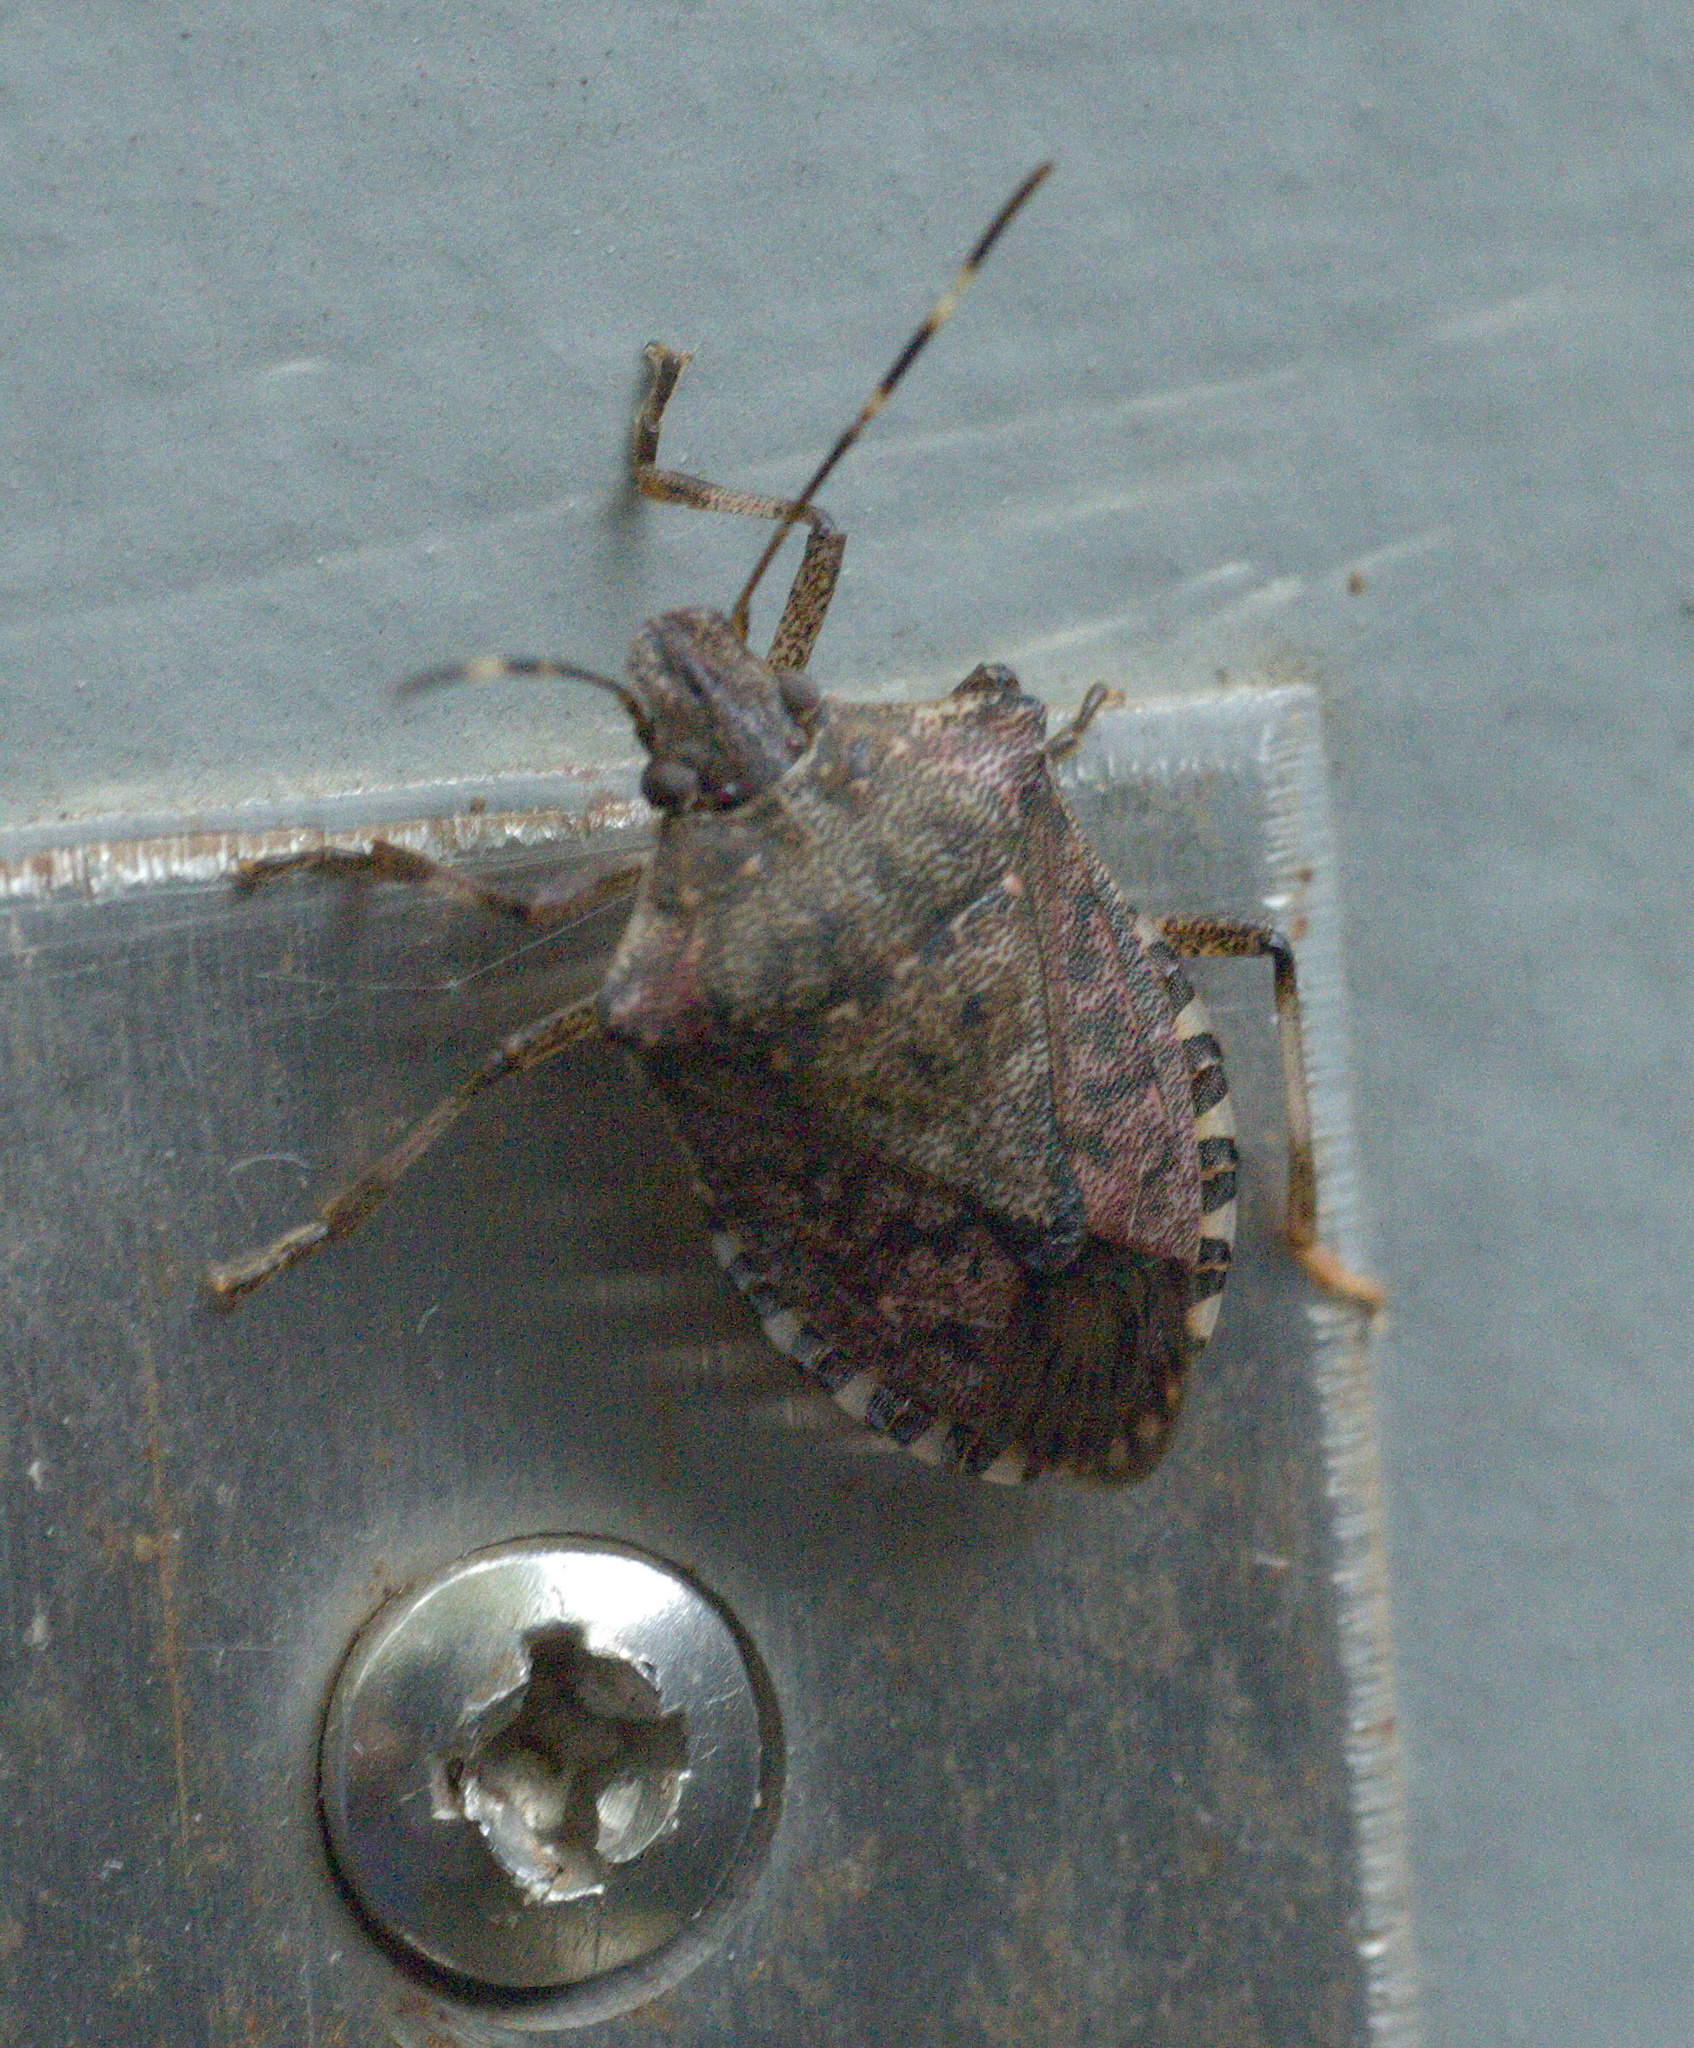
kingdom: Animalia
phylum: Arthropoda
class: Insecta
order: Hemiptera
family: Pentatomidae
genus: Halyomorpha
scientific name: Halyomorpha halys
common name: Brown marmorated stink bug
